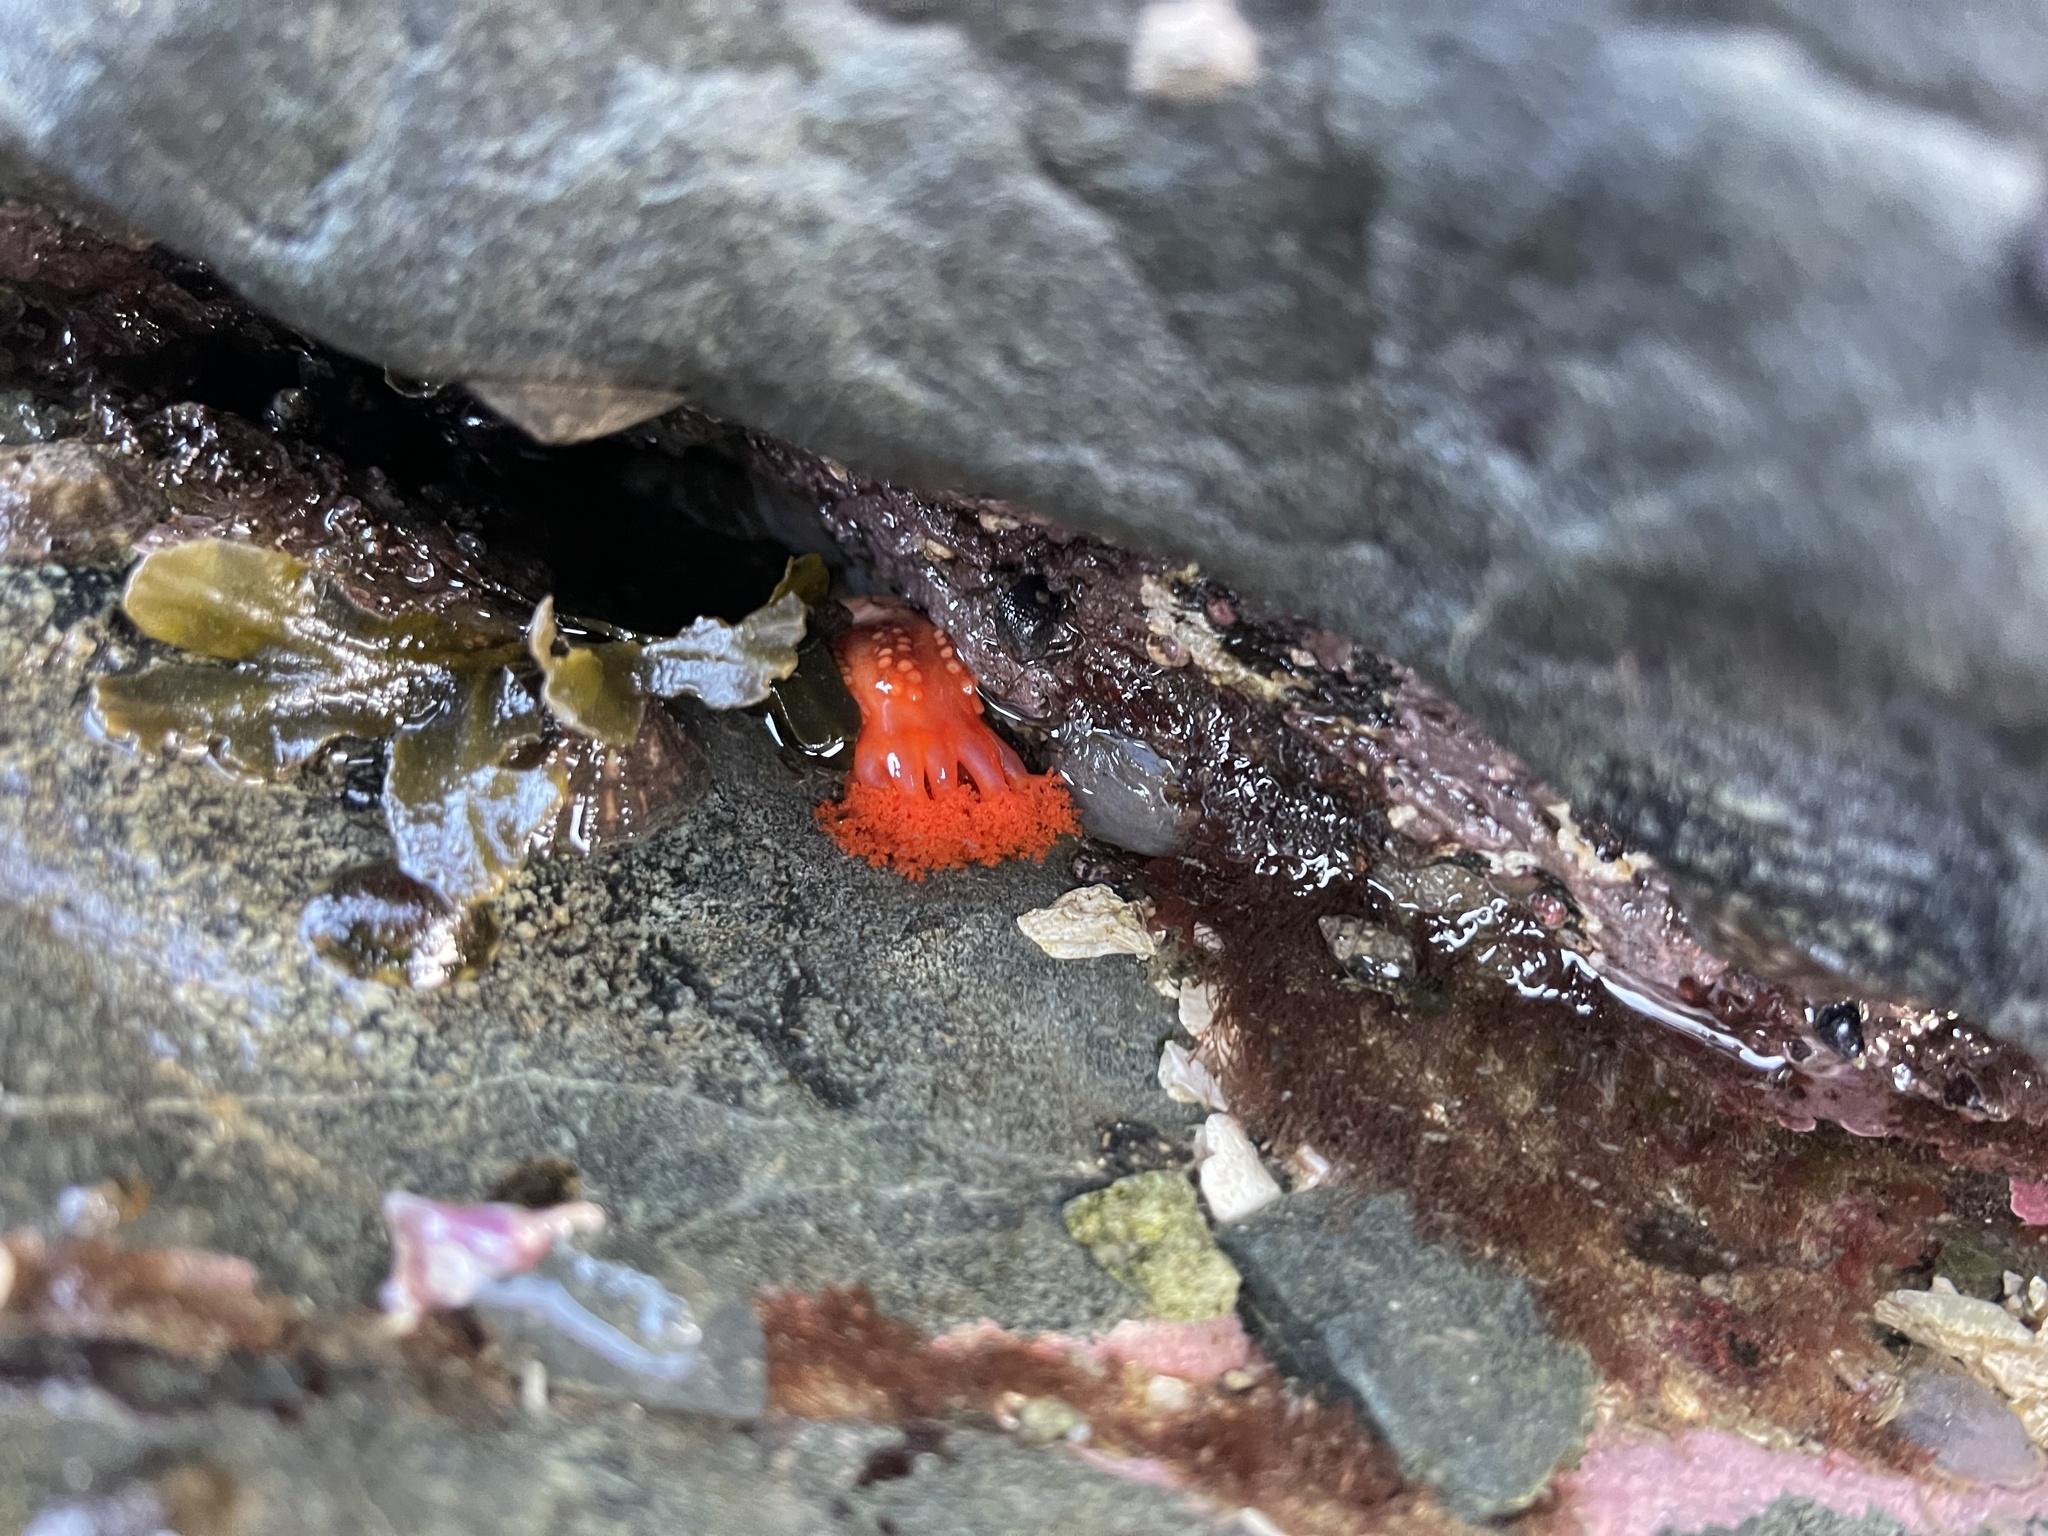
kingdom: Animalia
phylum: Echinodermata
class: Holothuroidea
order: Dendrochirotida
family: Cucumariidae
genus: Cucumaria
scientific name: Cucumaria miniata
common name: Orange sea cucumber
